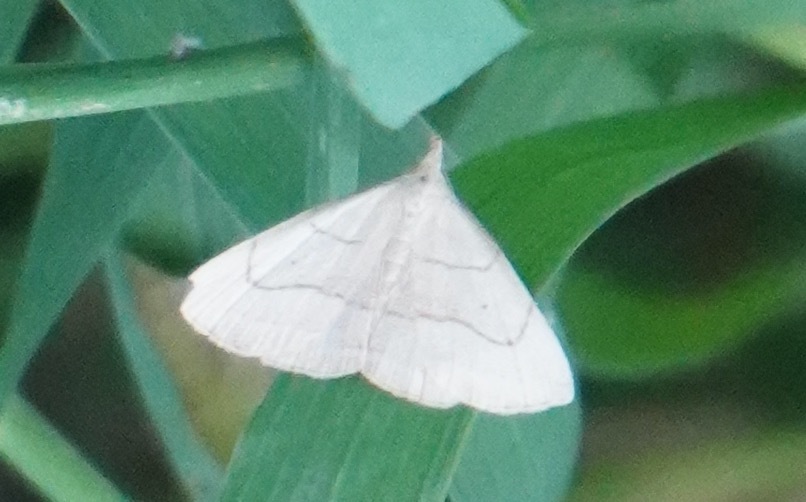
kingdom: Animalia
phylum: Arthropoda
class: Insecta
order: Lepidoptera
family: Erebidae
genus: Macrochilo
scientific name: Macrochilo litophora
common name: Brown-lined owlet
